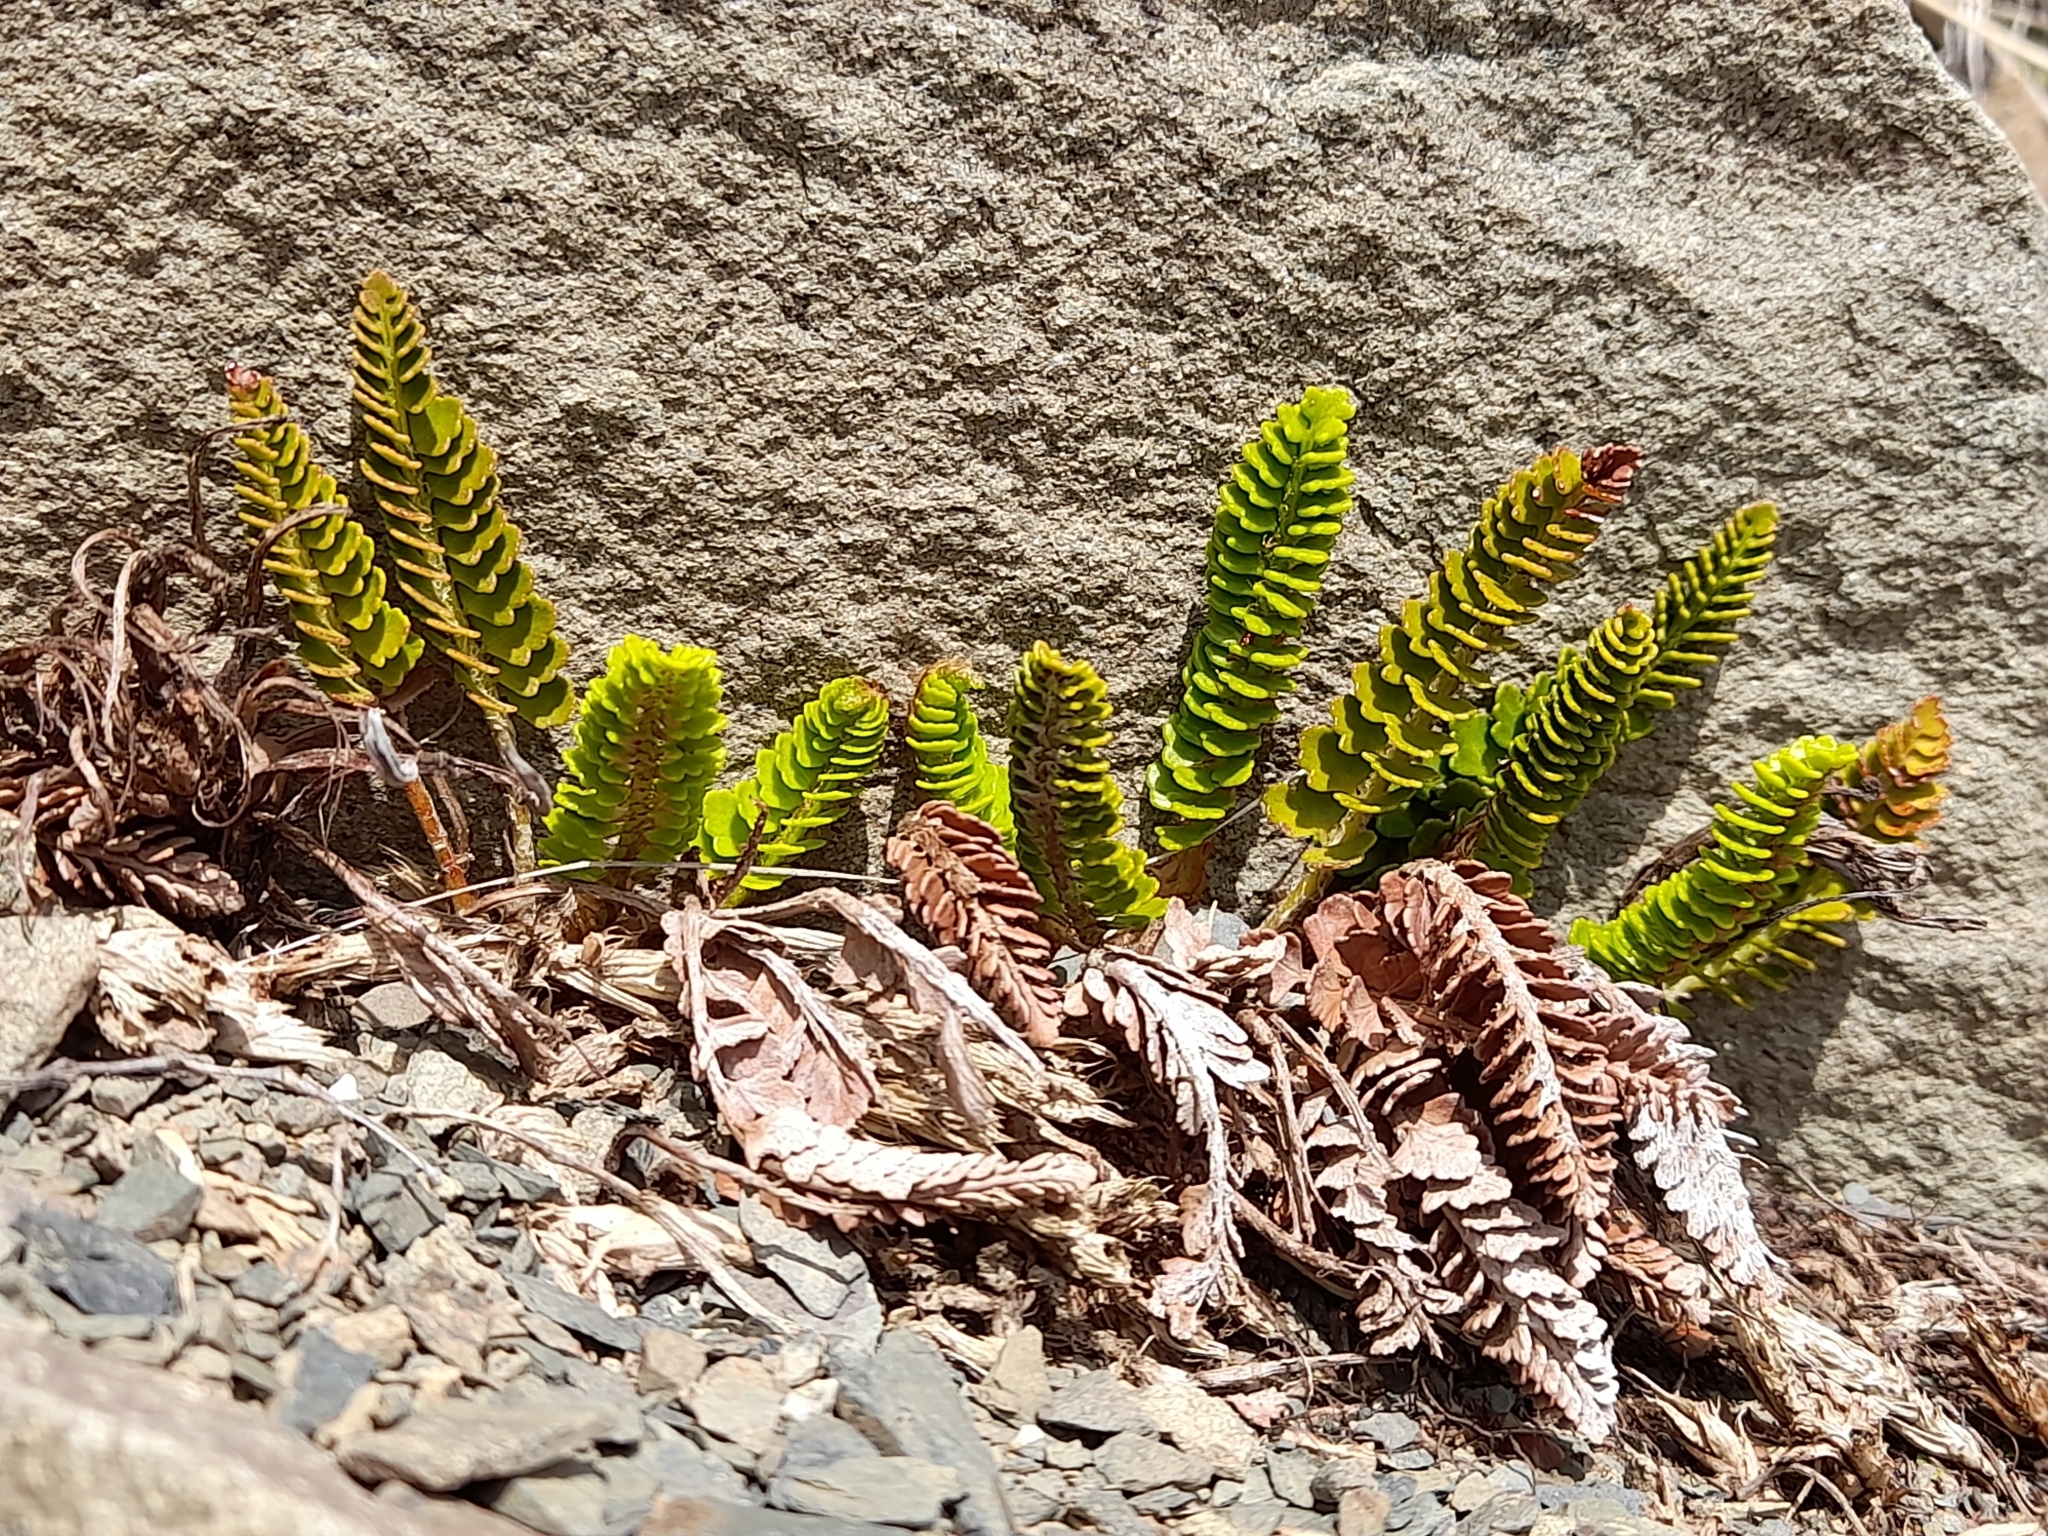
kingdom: Plantae
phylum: Tracheophyta
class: Polypodiopsida
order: Polypodiales
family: Dryopteridaceae
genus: Polystichum
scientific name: Polystichum andinum
